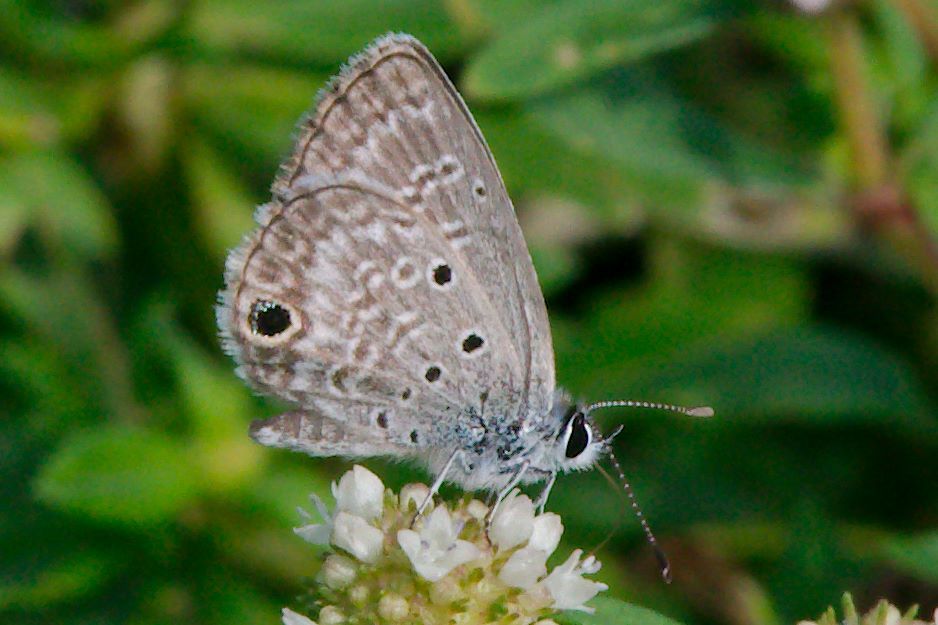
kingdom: Animalia
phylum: Arthropoda
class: Insecta
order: Lepidoptera
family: Lycaenidae
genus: Hemiargus
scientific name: Hemiargus ceraunus
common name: Ceraunus blue
